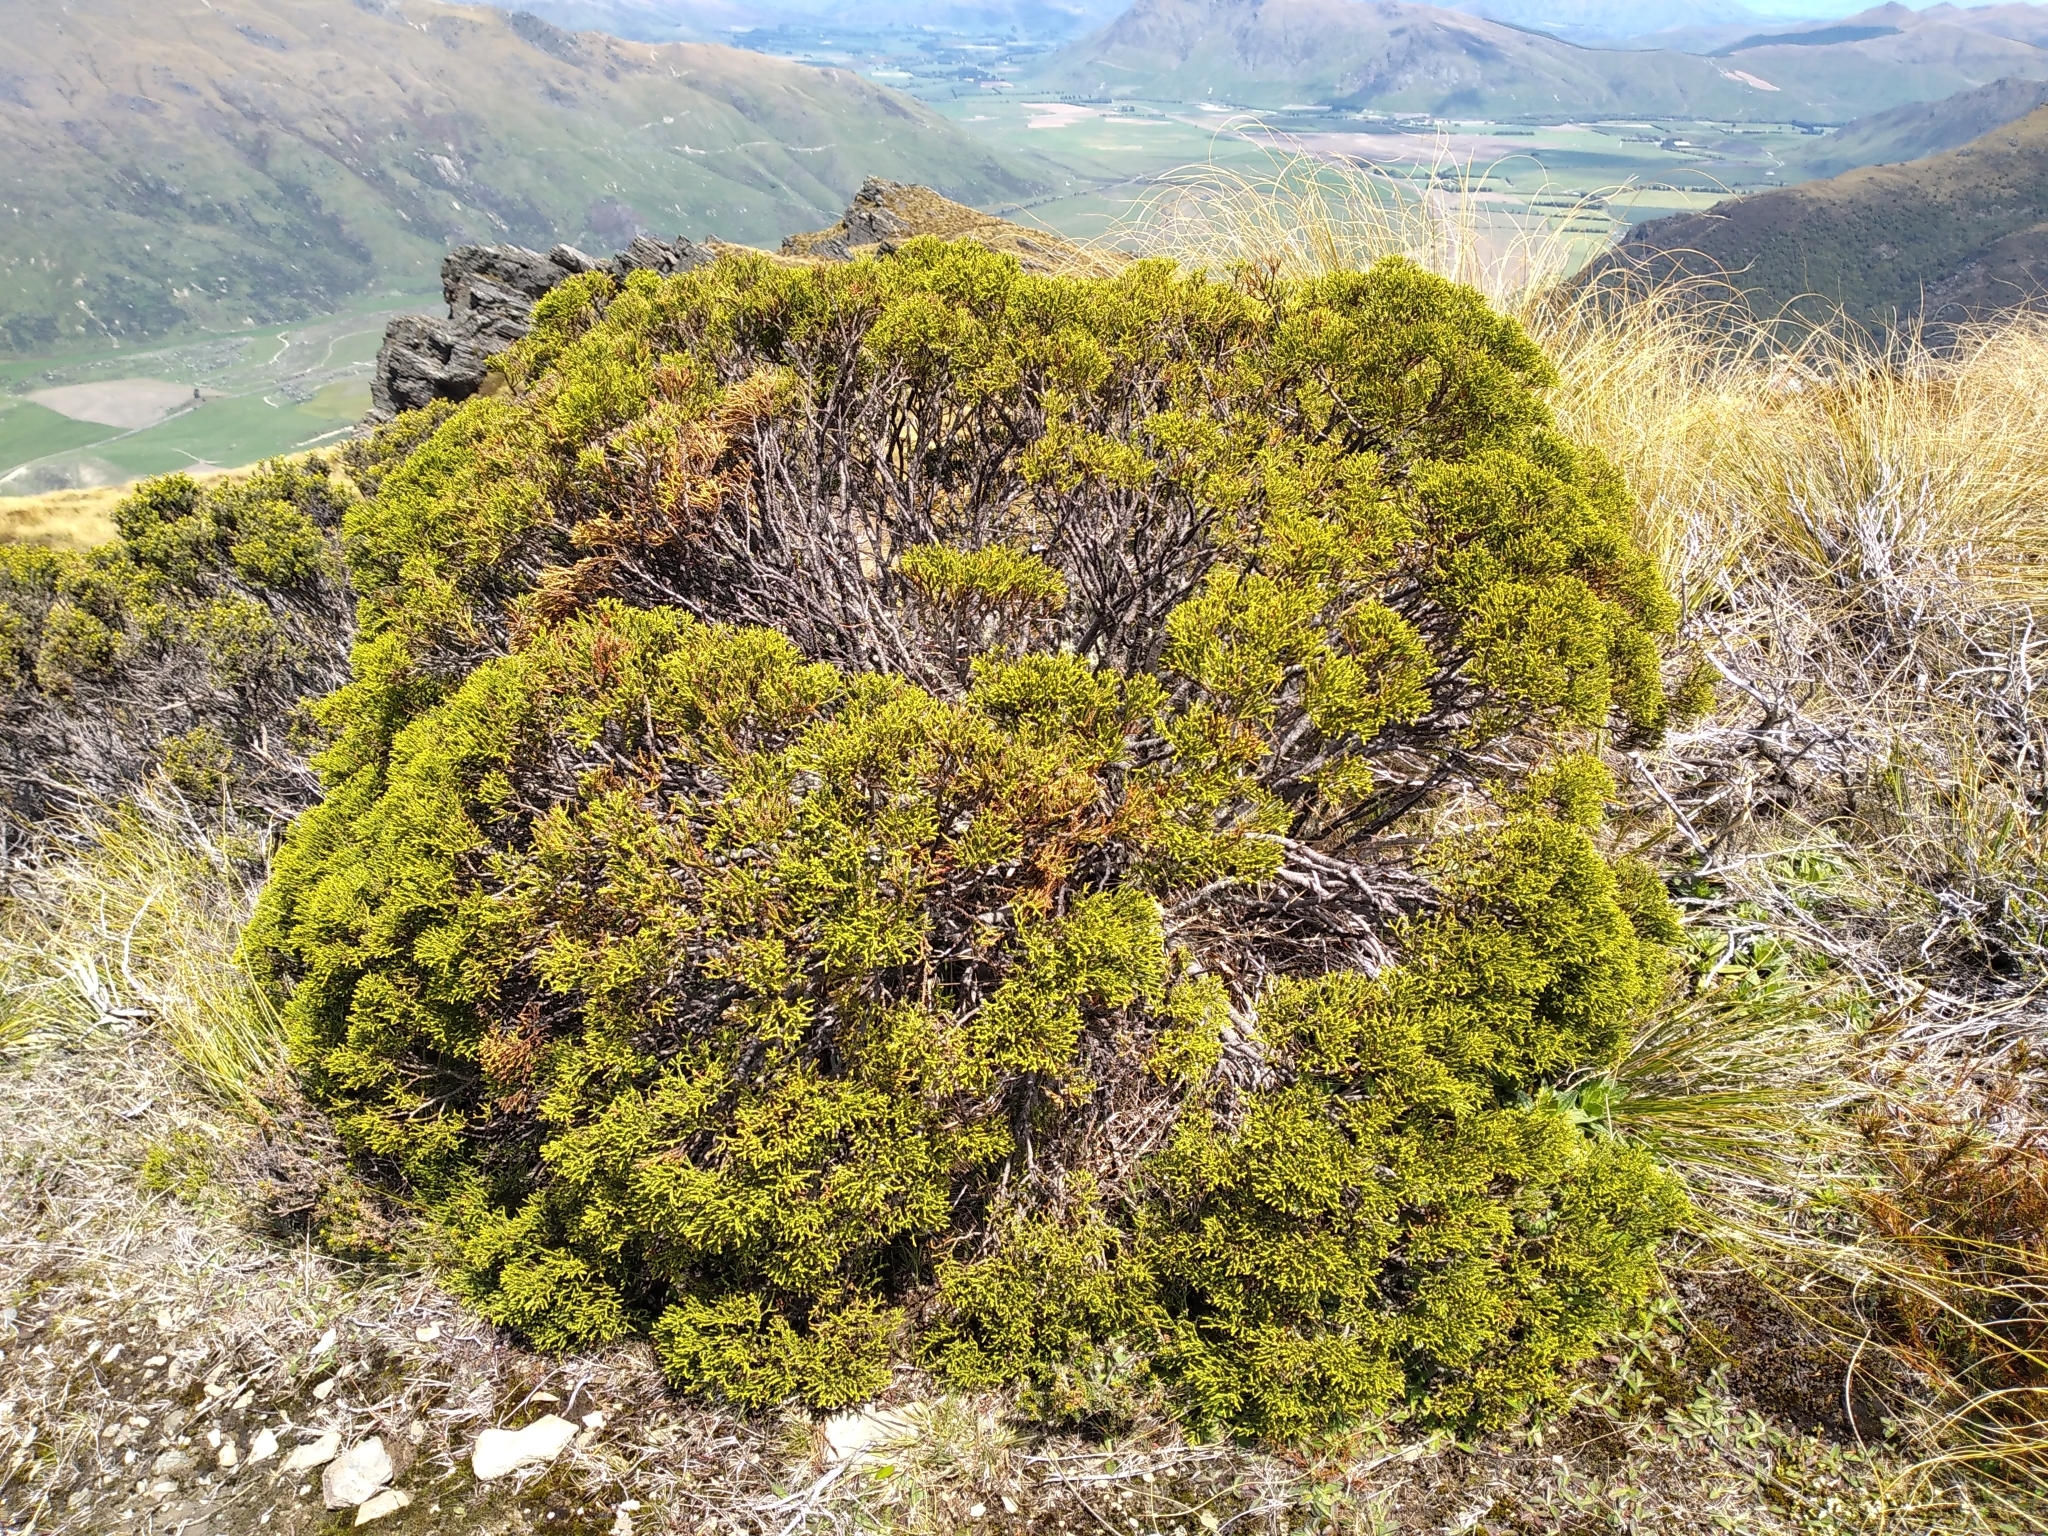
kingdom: Plantae
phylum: Tracheophyta
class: Magnoliopsida
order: Lamiales
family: Plantaginaceae
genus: Veronica
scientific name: Veronica propinqua
